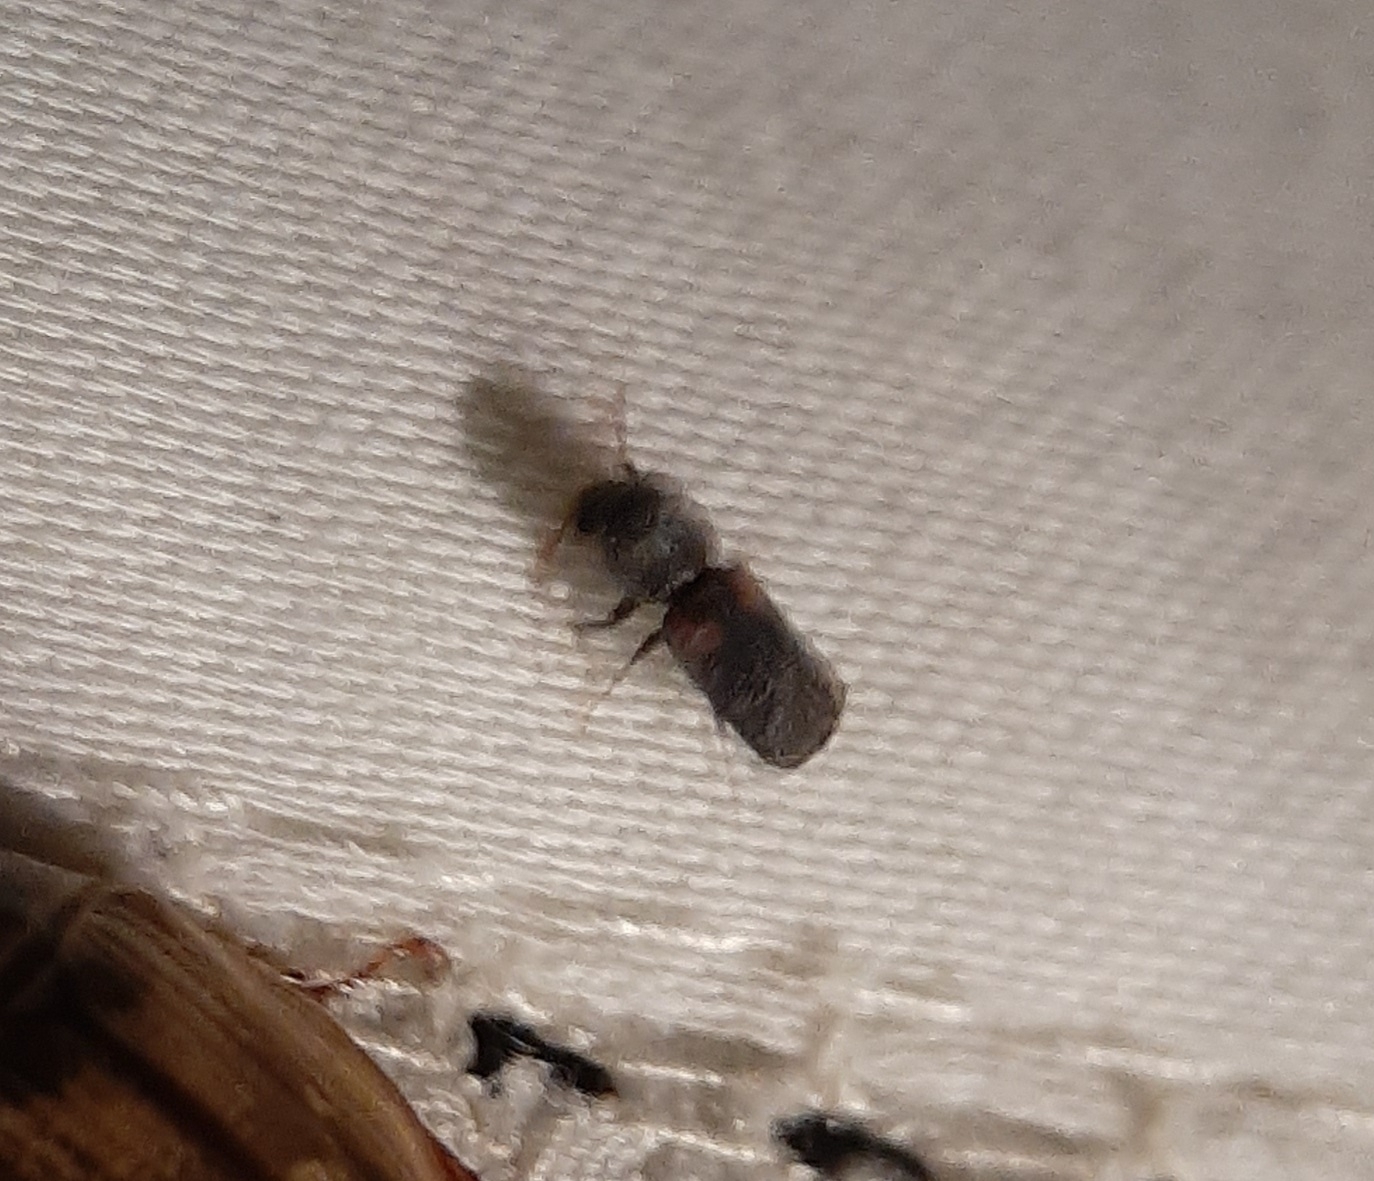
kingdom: Animalia
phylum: Arthropoda
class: Insecta
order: Coleoptera
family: Bostrichidae
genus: Xylobiops
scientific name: Xylobiops basilaris
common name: Red-shouldered bostrichid
